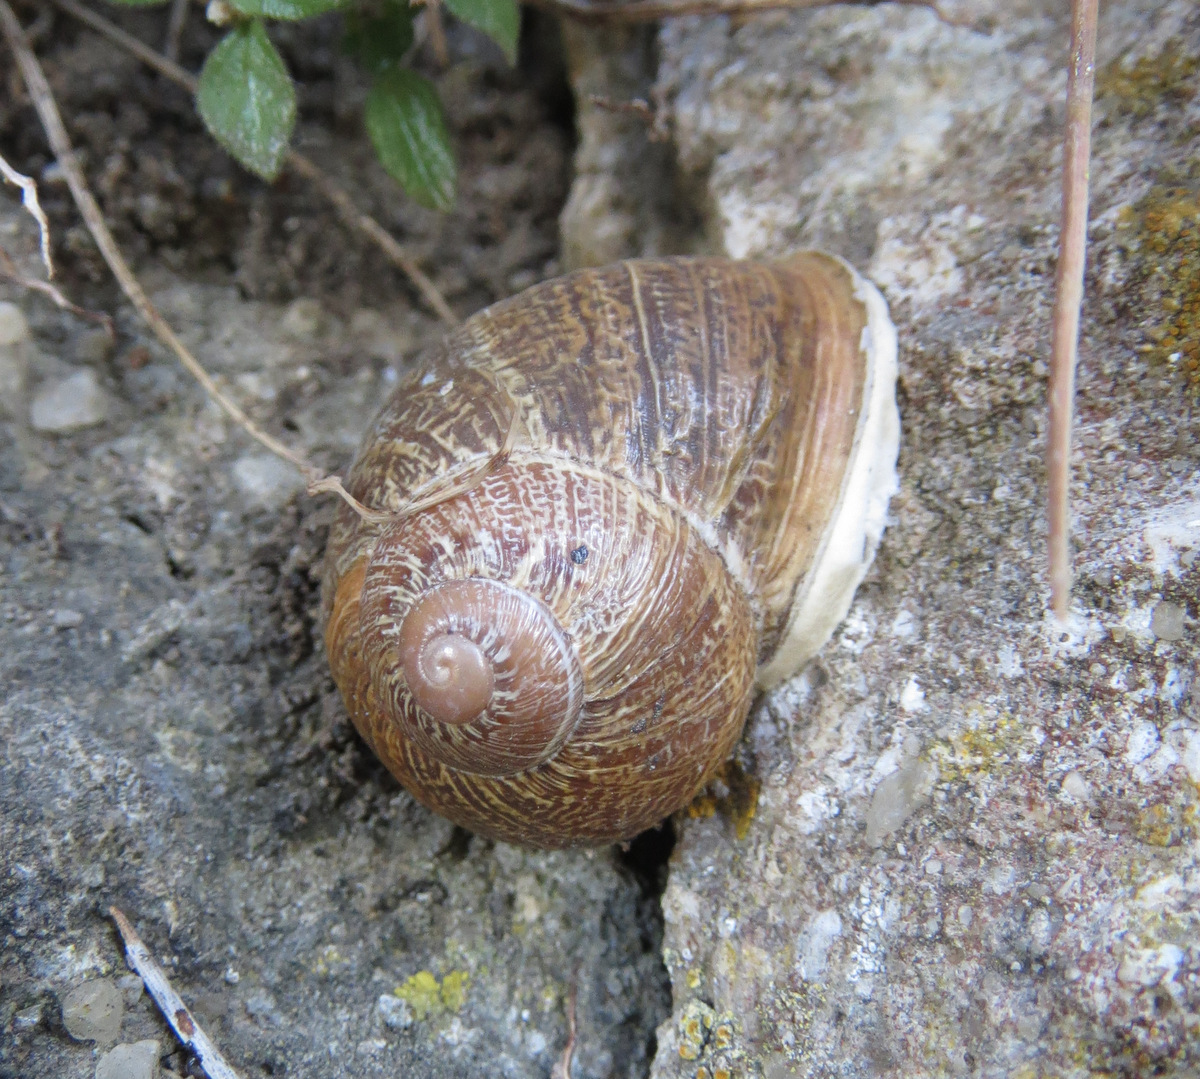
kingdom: Animalia
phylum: Mollusca
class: Gastropoda
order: Stylommatophora
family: Helicidae
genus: Cornu
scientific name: Cornu aspersum
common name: Brown garden snail
